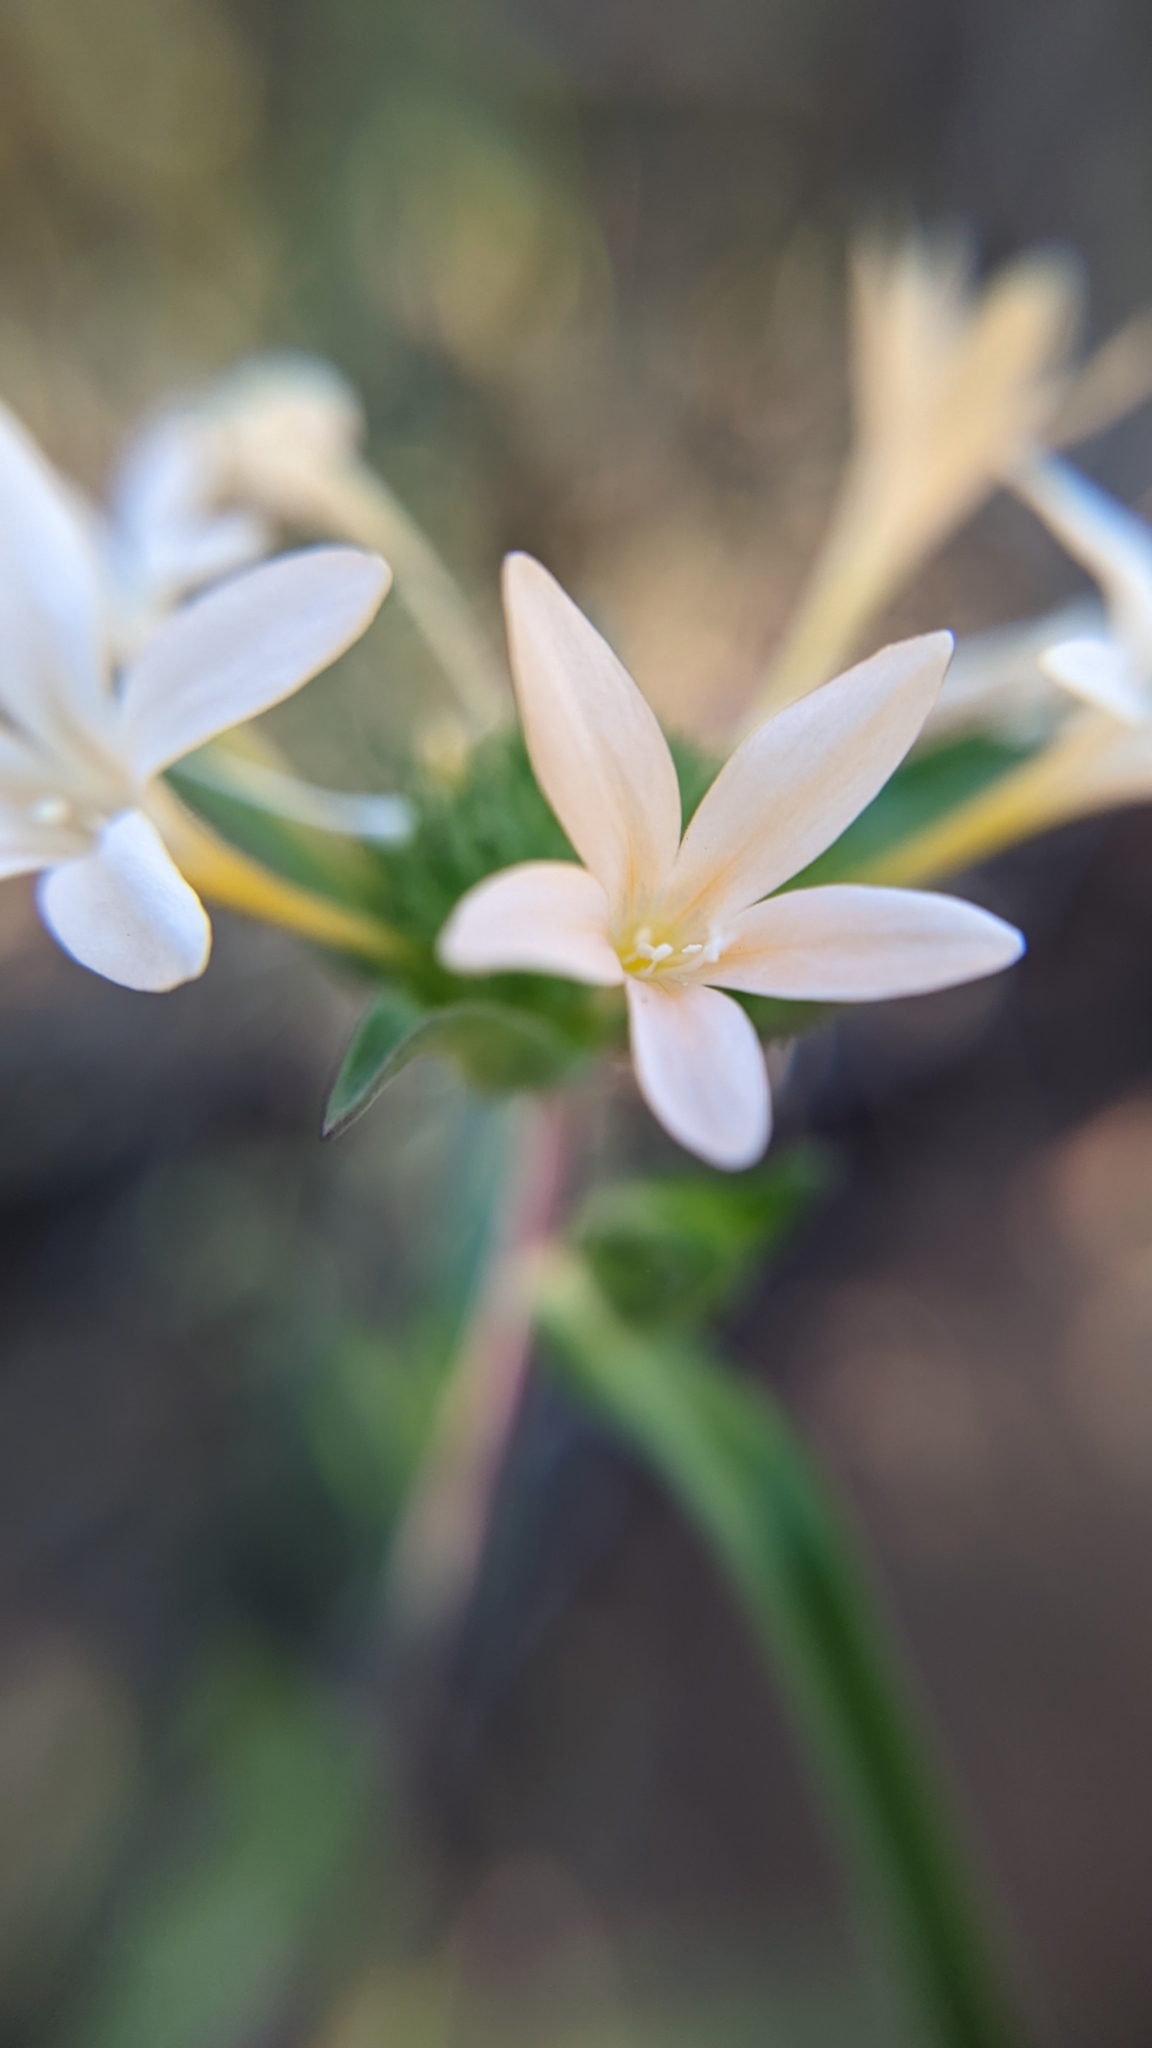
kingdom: Plantae
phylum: Tracheophyta
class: Magnoliopsida
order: Ericales
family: Polemoniaceae
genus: Collomia
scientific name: Collomia grandiflora
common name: California strawflower
